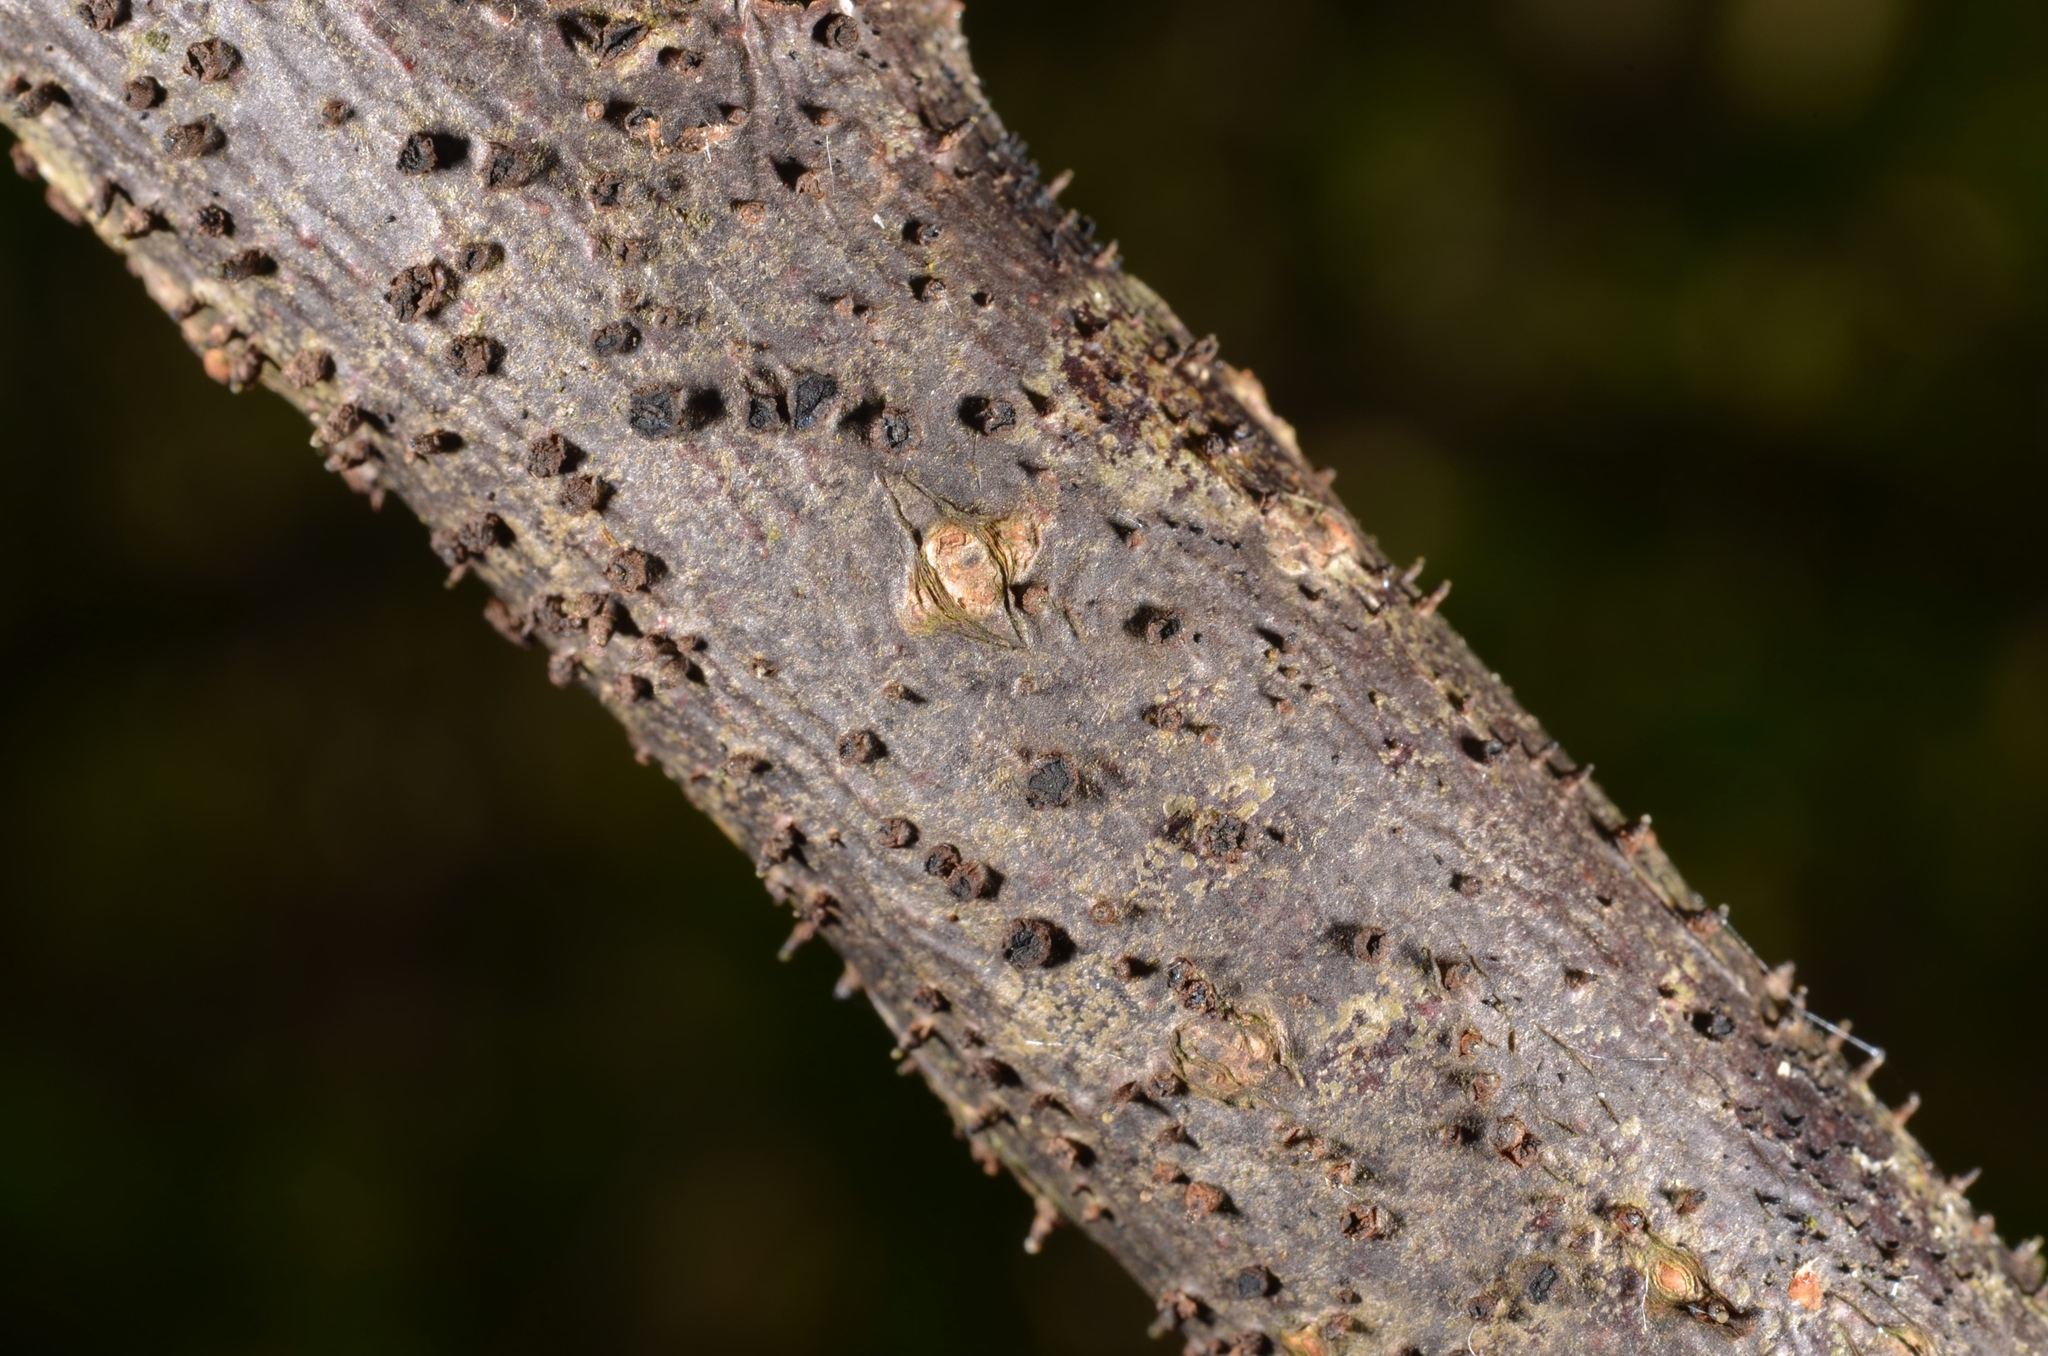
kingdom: Fungi
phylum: Ascomycota
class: Leotiomycetes
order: Helotiales
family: Dermateaceae
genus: Dermea
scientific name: Dermea padi
